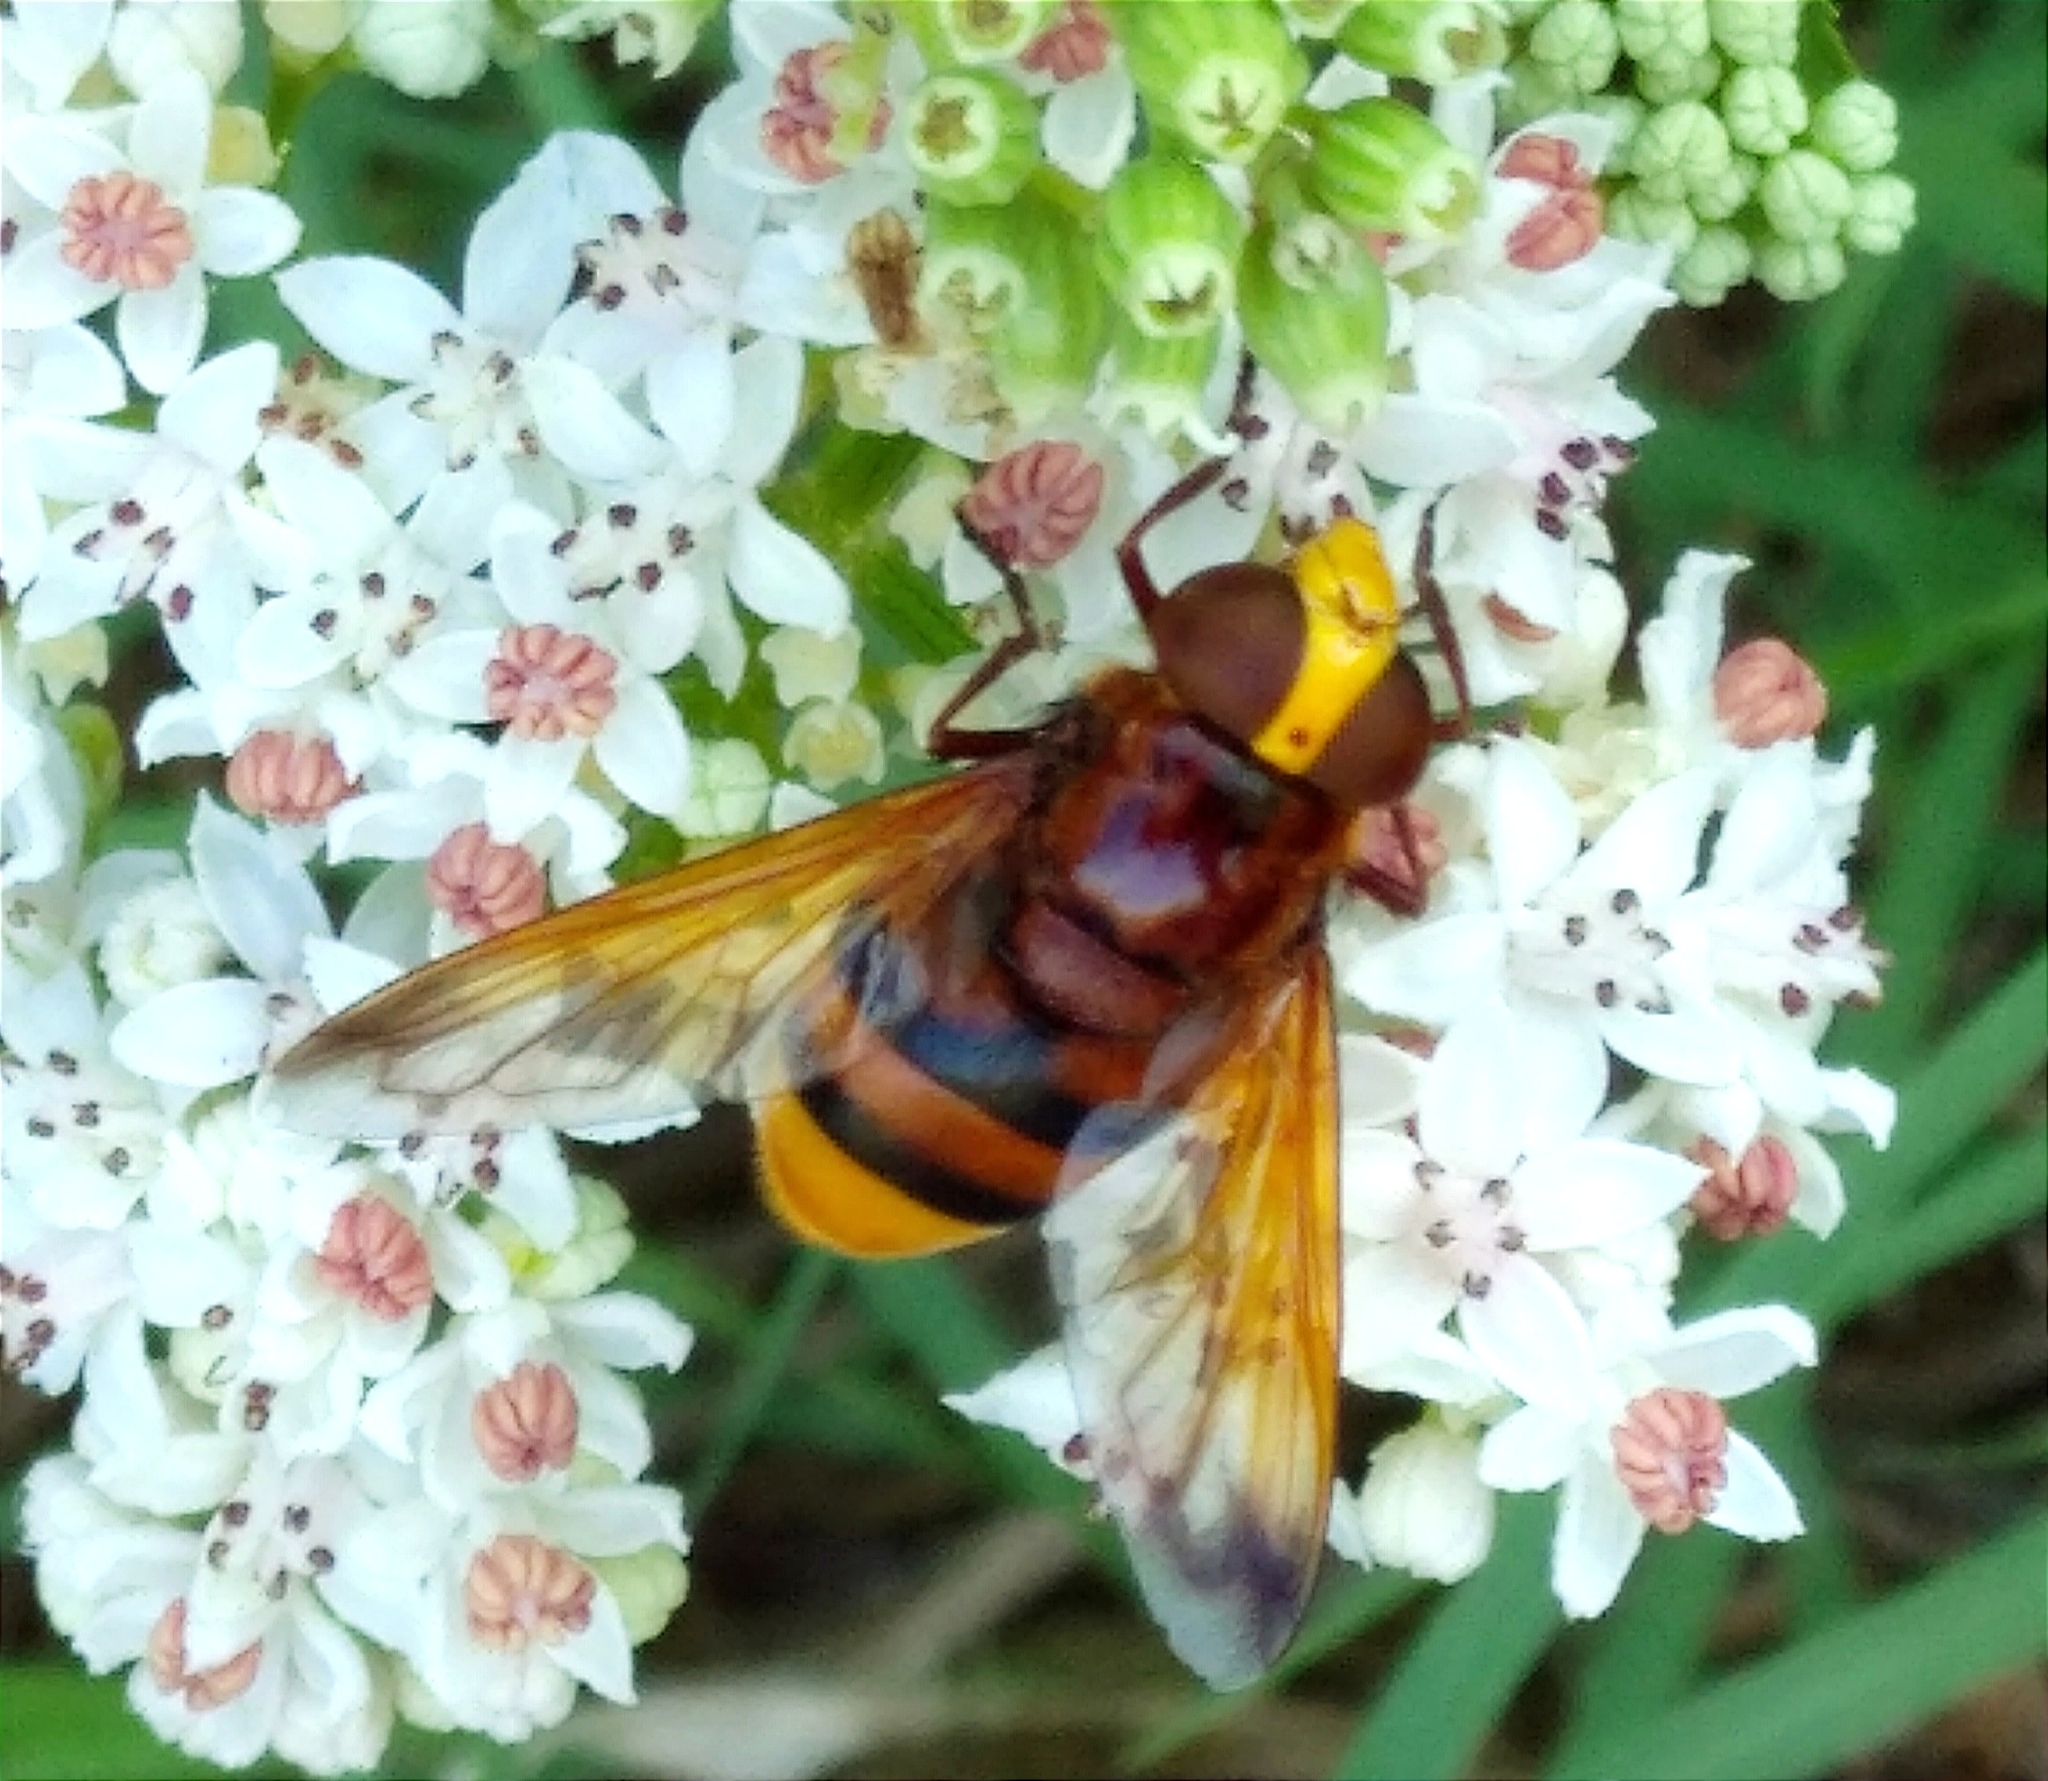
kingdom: Animalia
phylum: Arthropoda
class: Insecta
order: Diptera
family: Syrphidae
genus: Volucella
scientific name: Volucella zonaria
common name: Hornet hoverfly
